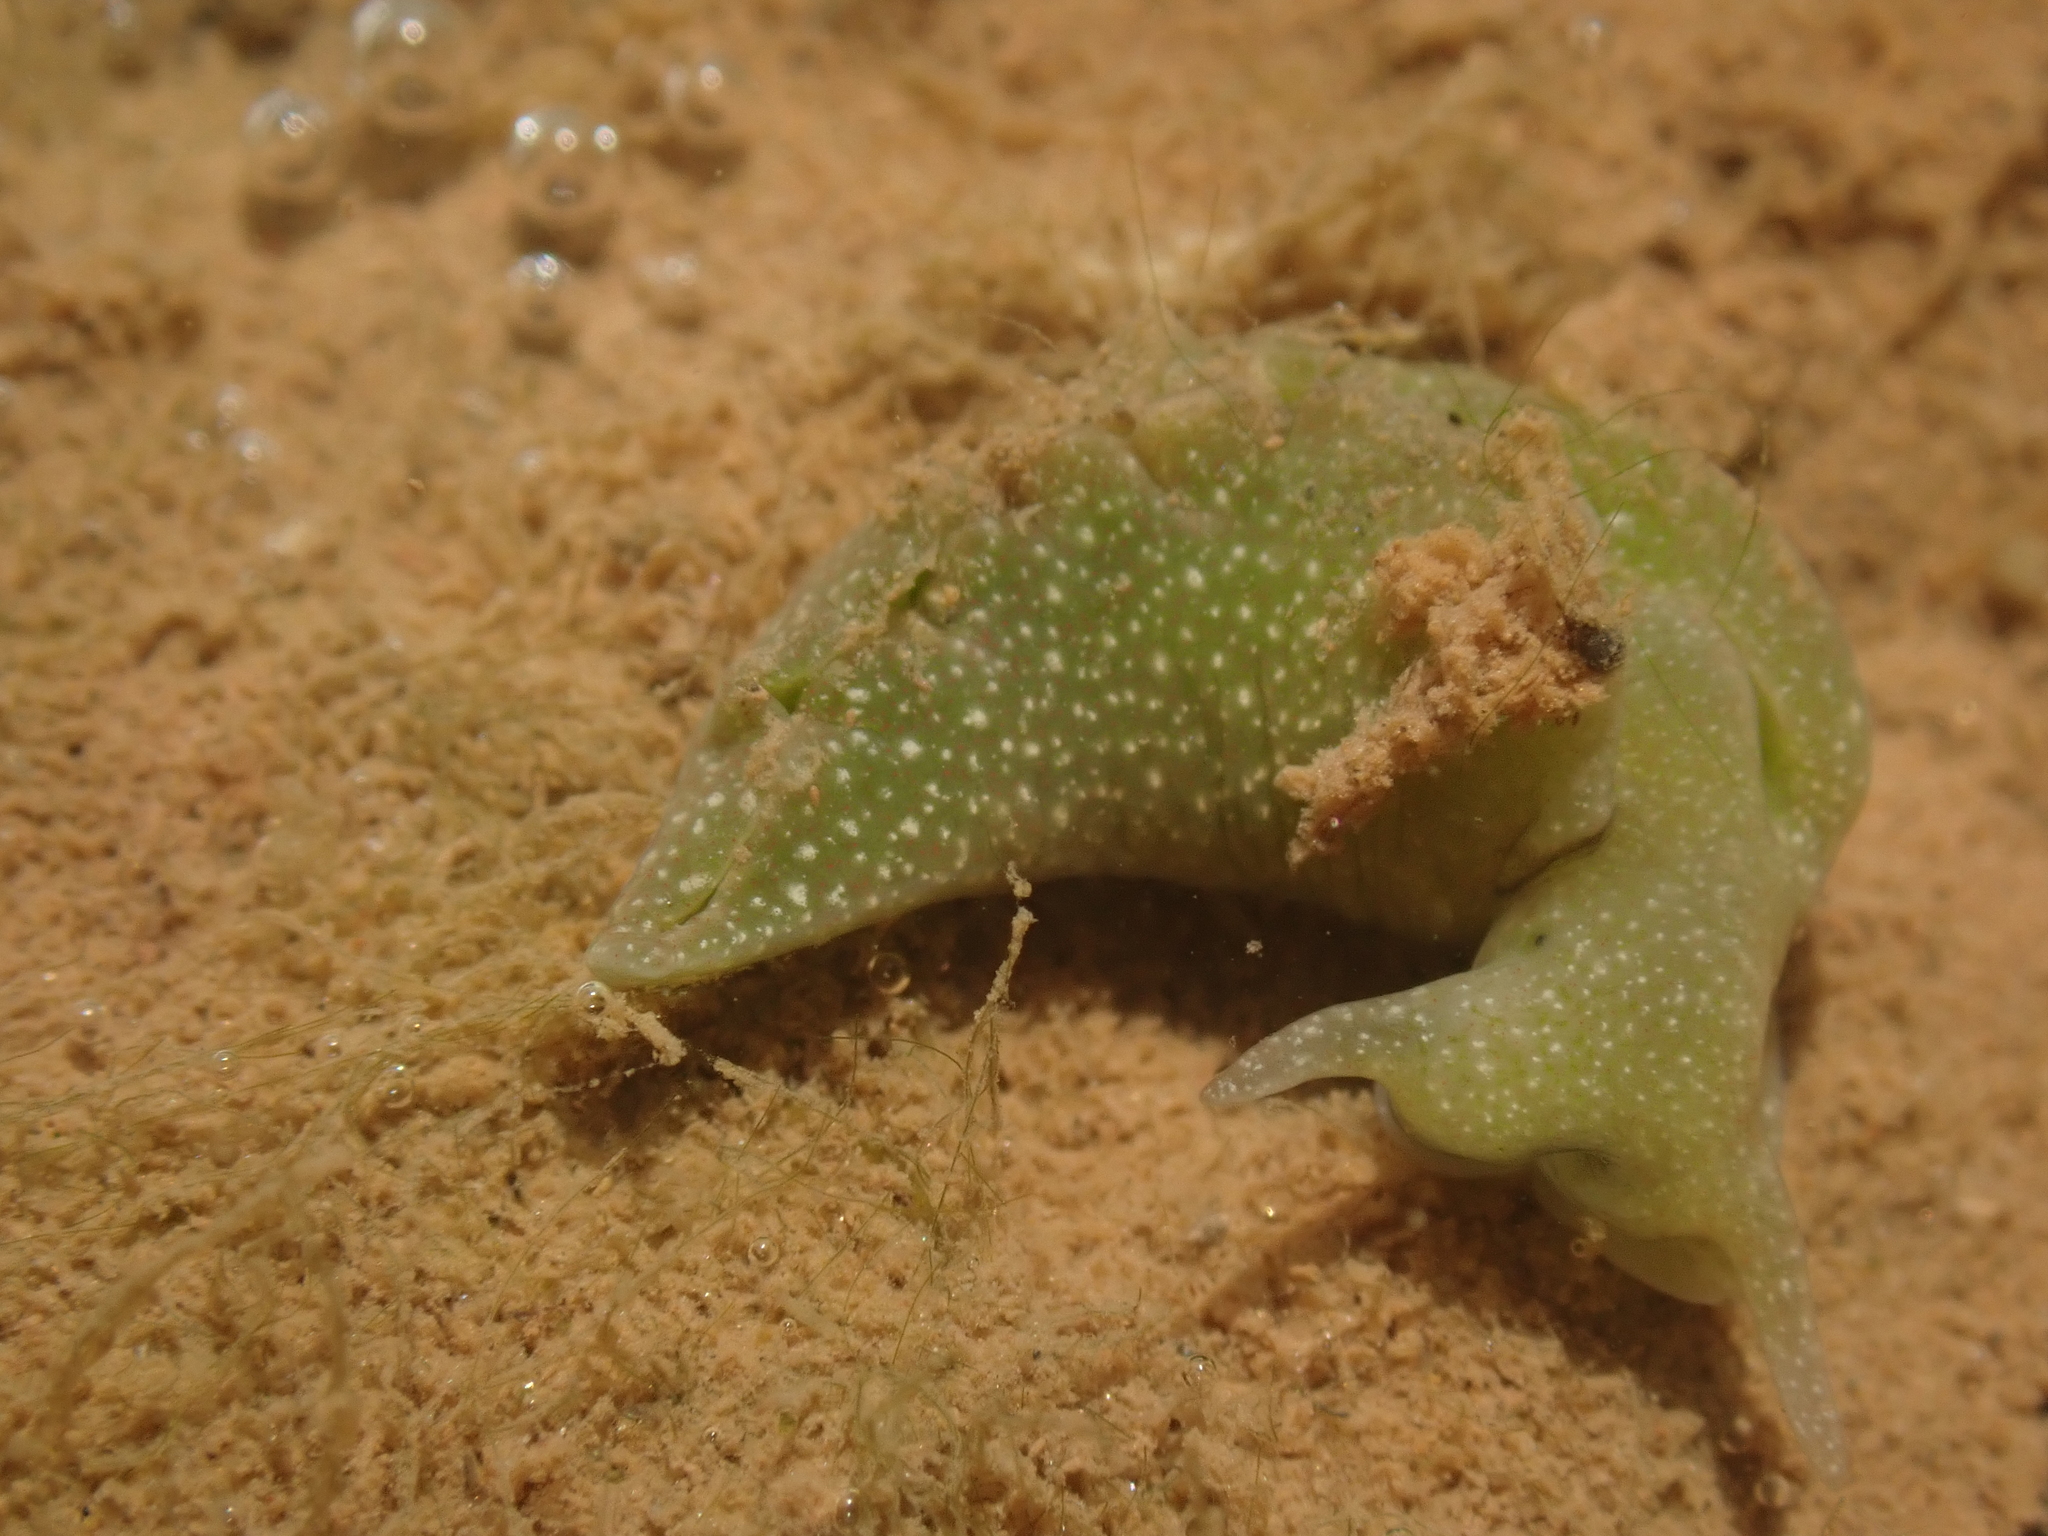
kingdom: Animalia
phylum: Mollusca
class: Gastropoda
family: Plakobranchidae
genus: Elysia
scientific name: Elysia chlorotica
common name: Eastern emerald elysia
